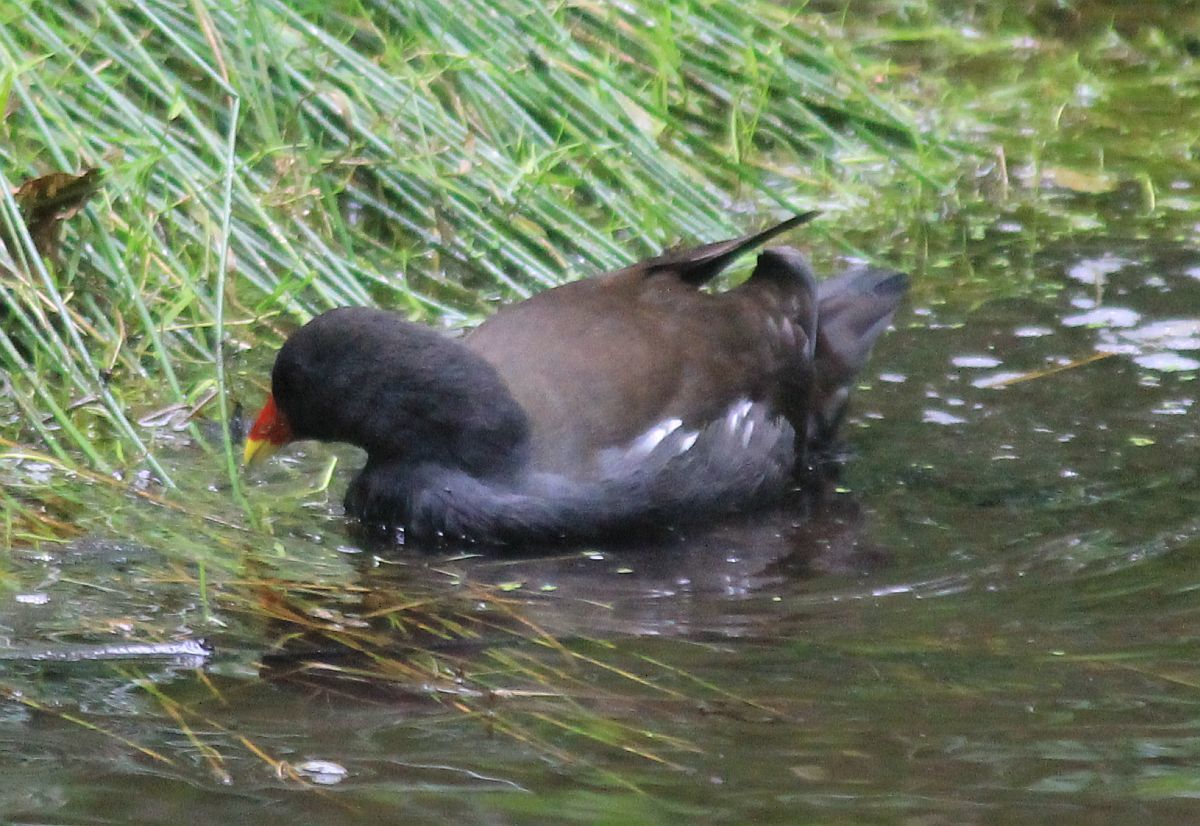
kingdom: Animalia
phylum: Chordata
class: Aves
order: Gruiformes
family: Rallidae
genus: Gallinula
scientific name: Gallinula chloropus
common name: Common moorhen
